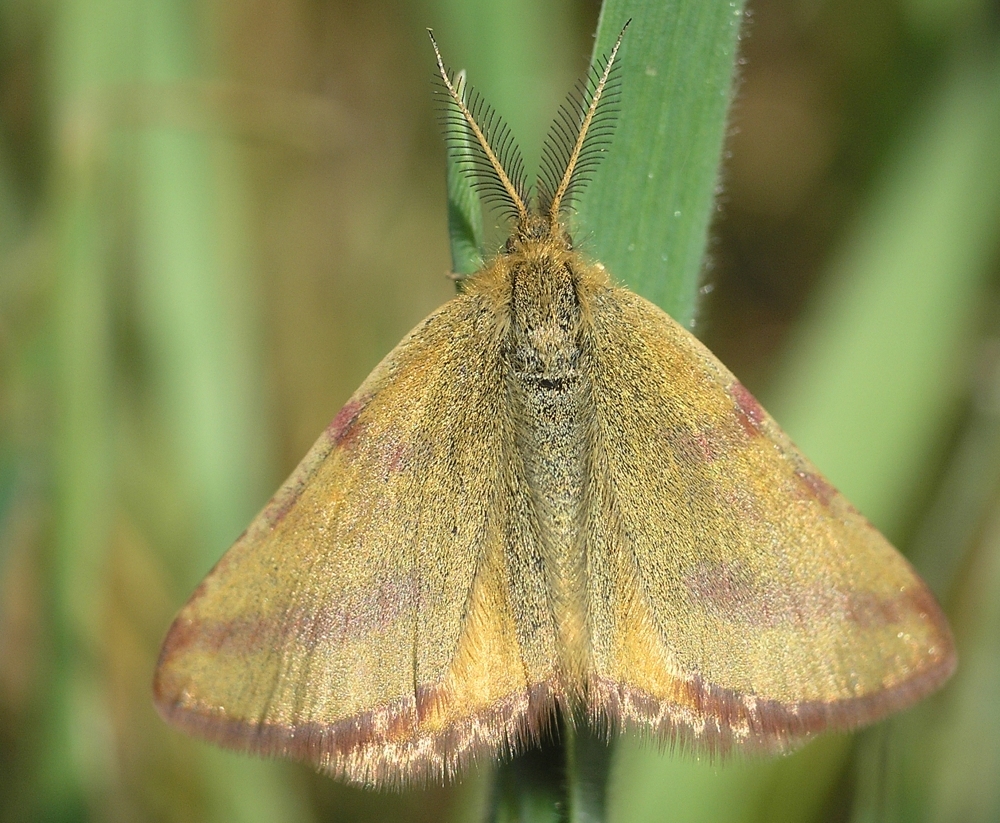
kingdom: Animalia
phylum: Arthropoda
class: Insecta
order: Lepidoptera
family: Geometridae
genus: Lythria
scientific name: Lythria purpuraria
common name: Purple-barred yellow
